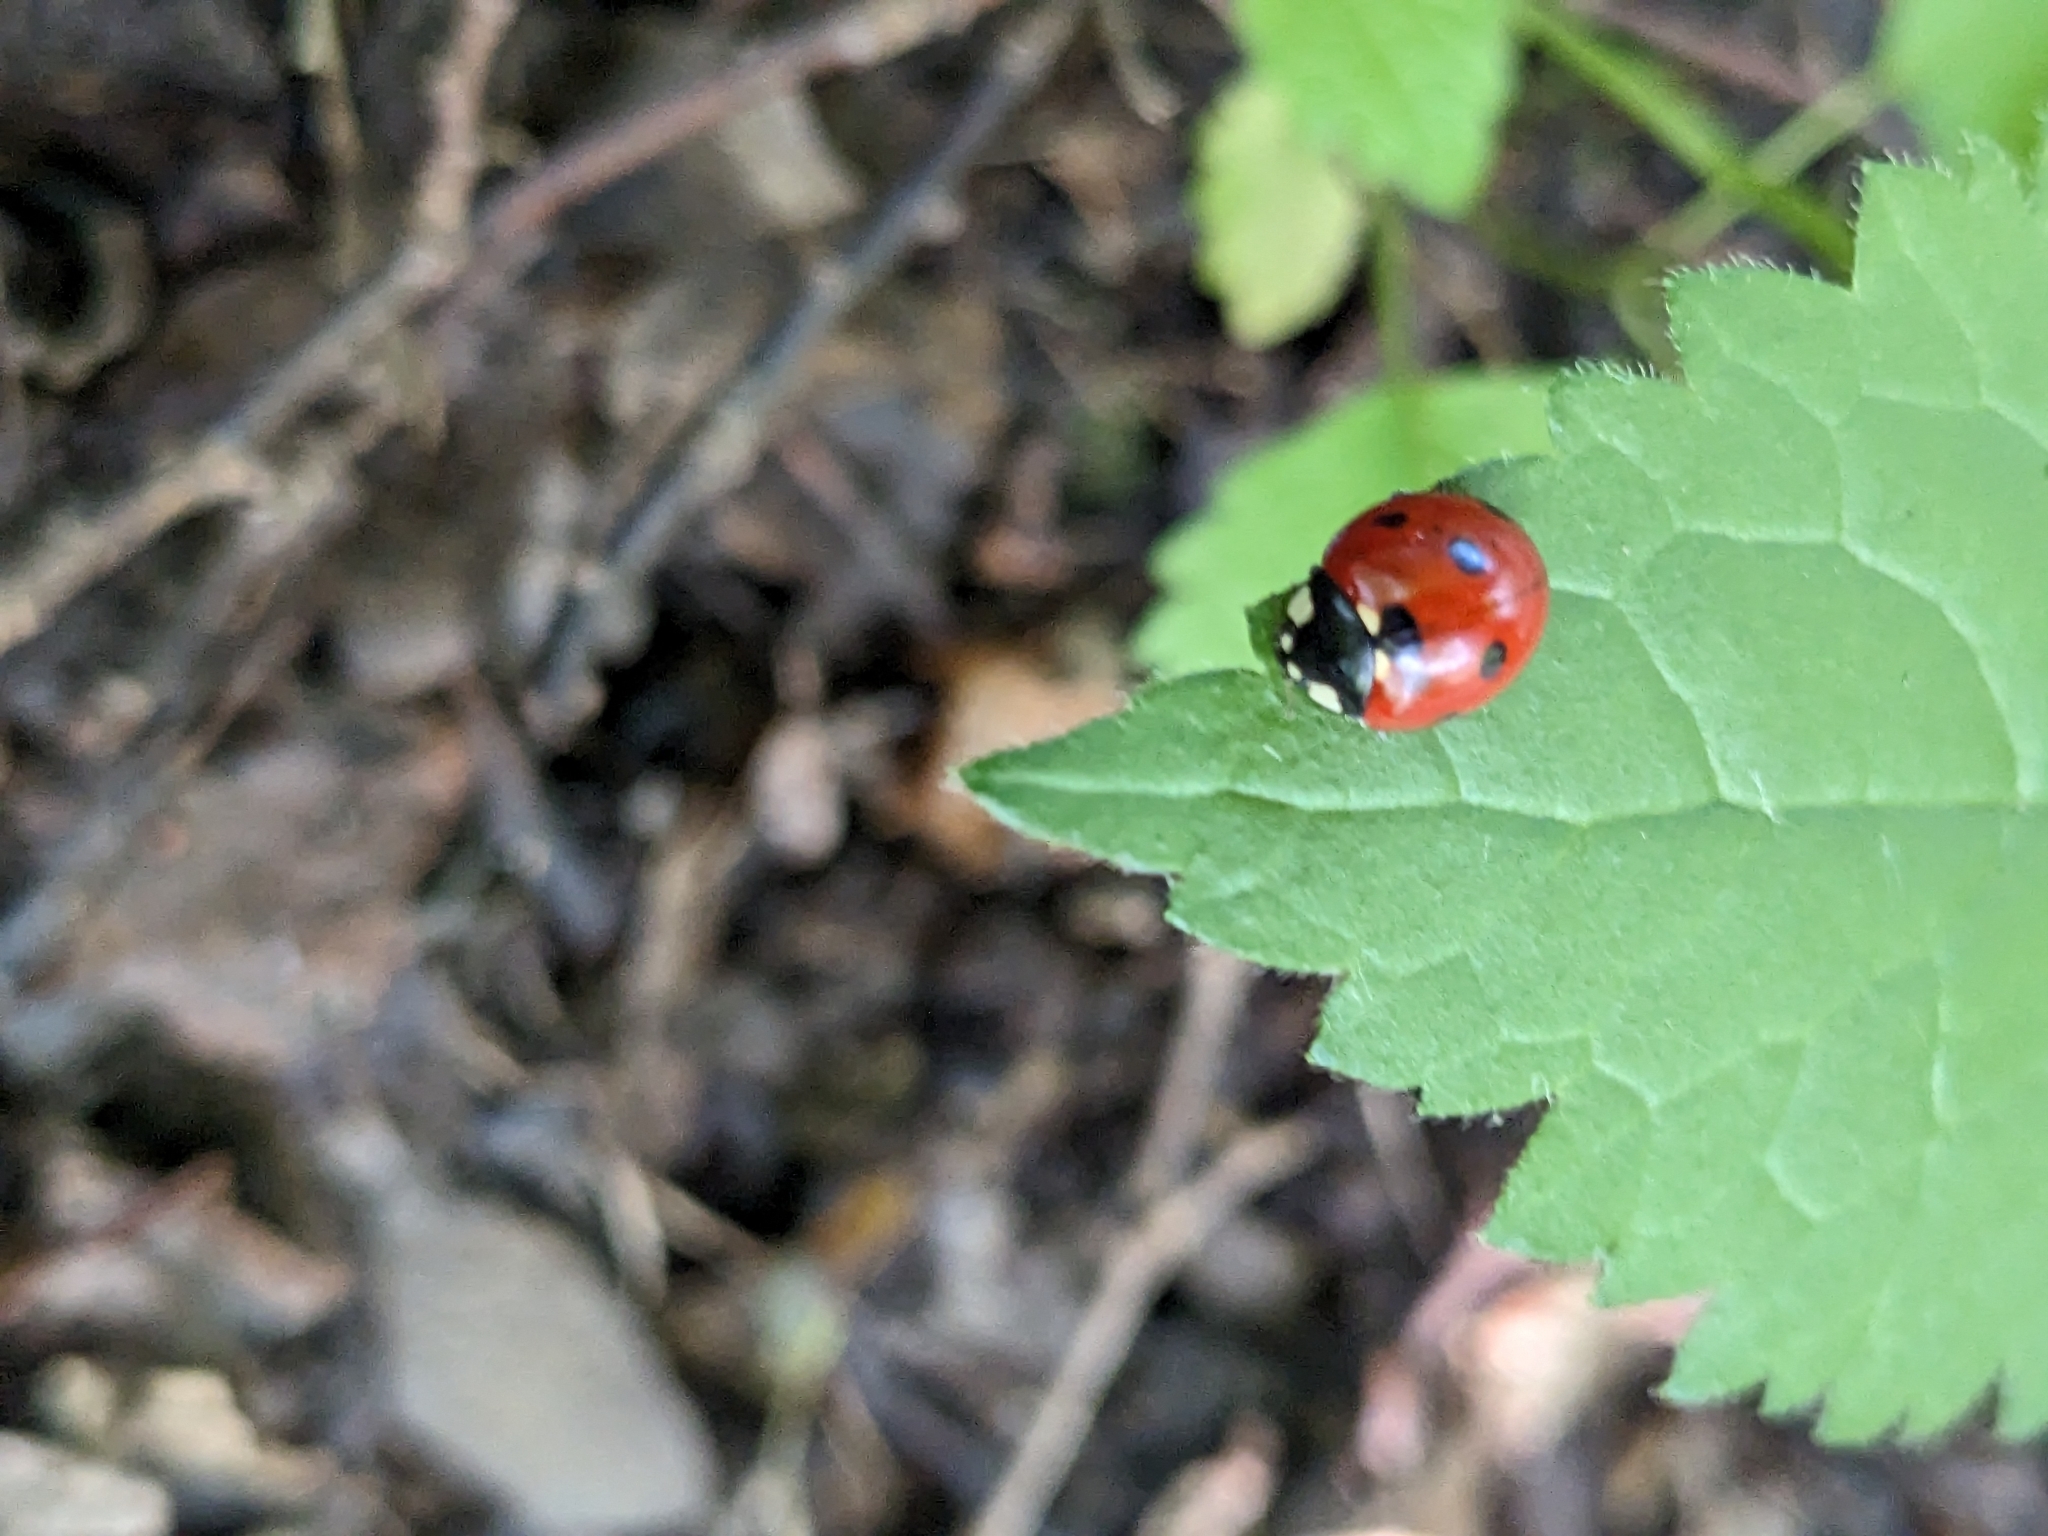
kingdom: Animalia
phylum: Arthropoda
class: Insecta
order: Coleoptera
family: Coccinellidae
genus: Coccinella
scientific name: Coccinella septempunctata
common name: Sevenspotted lady beetle
